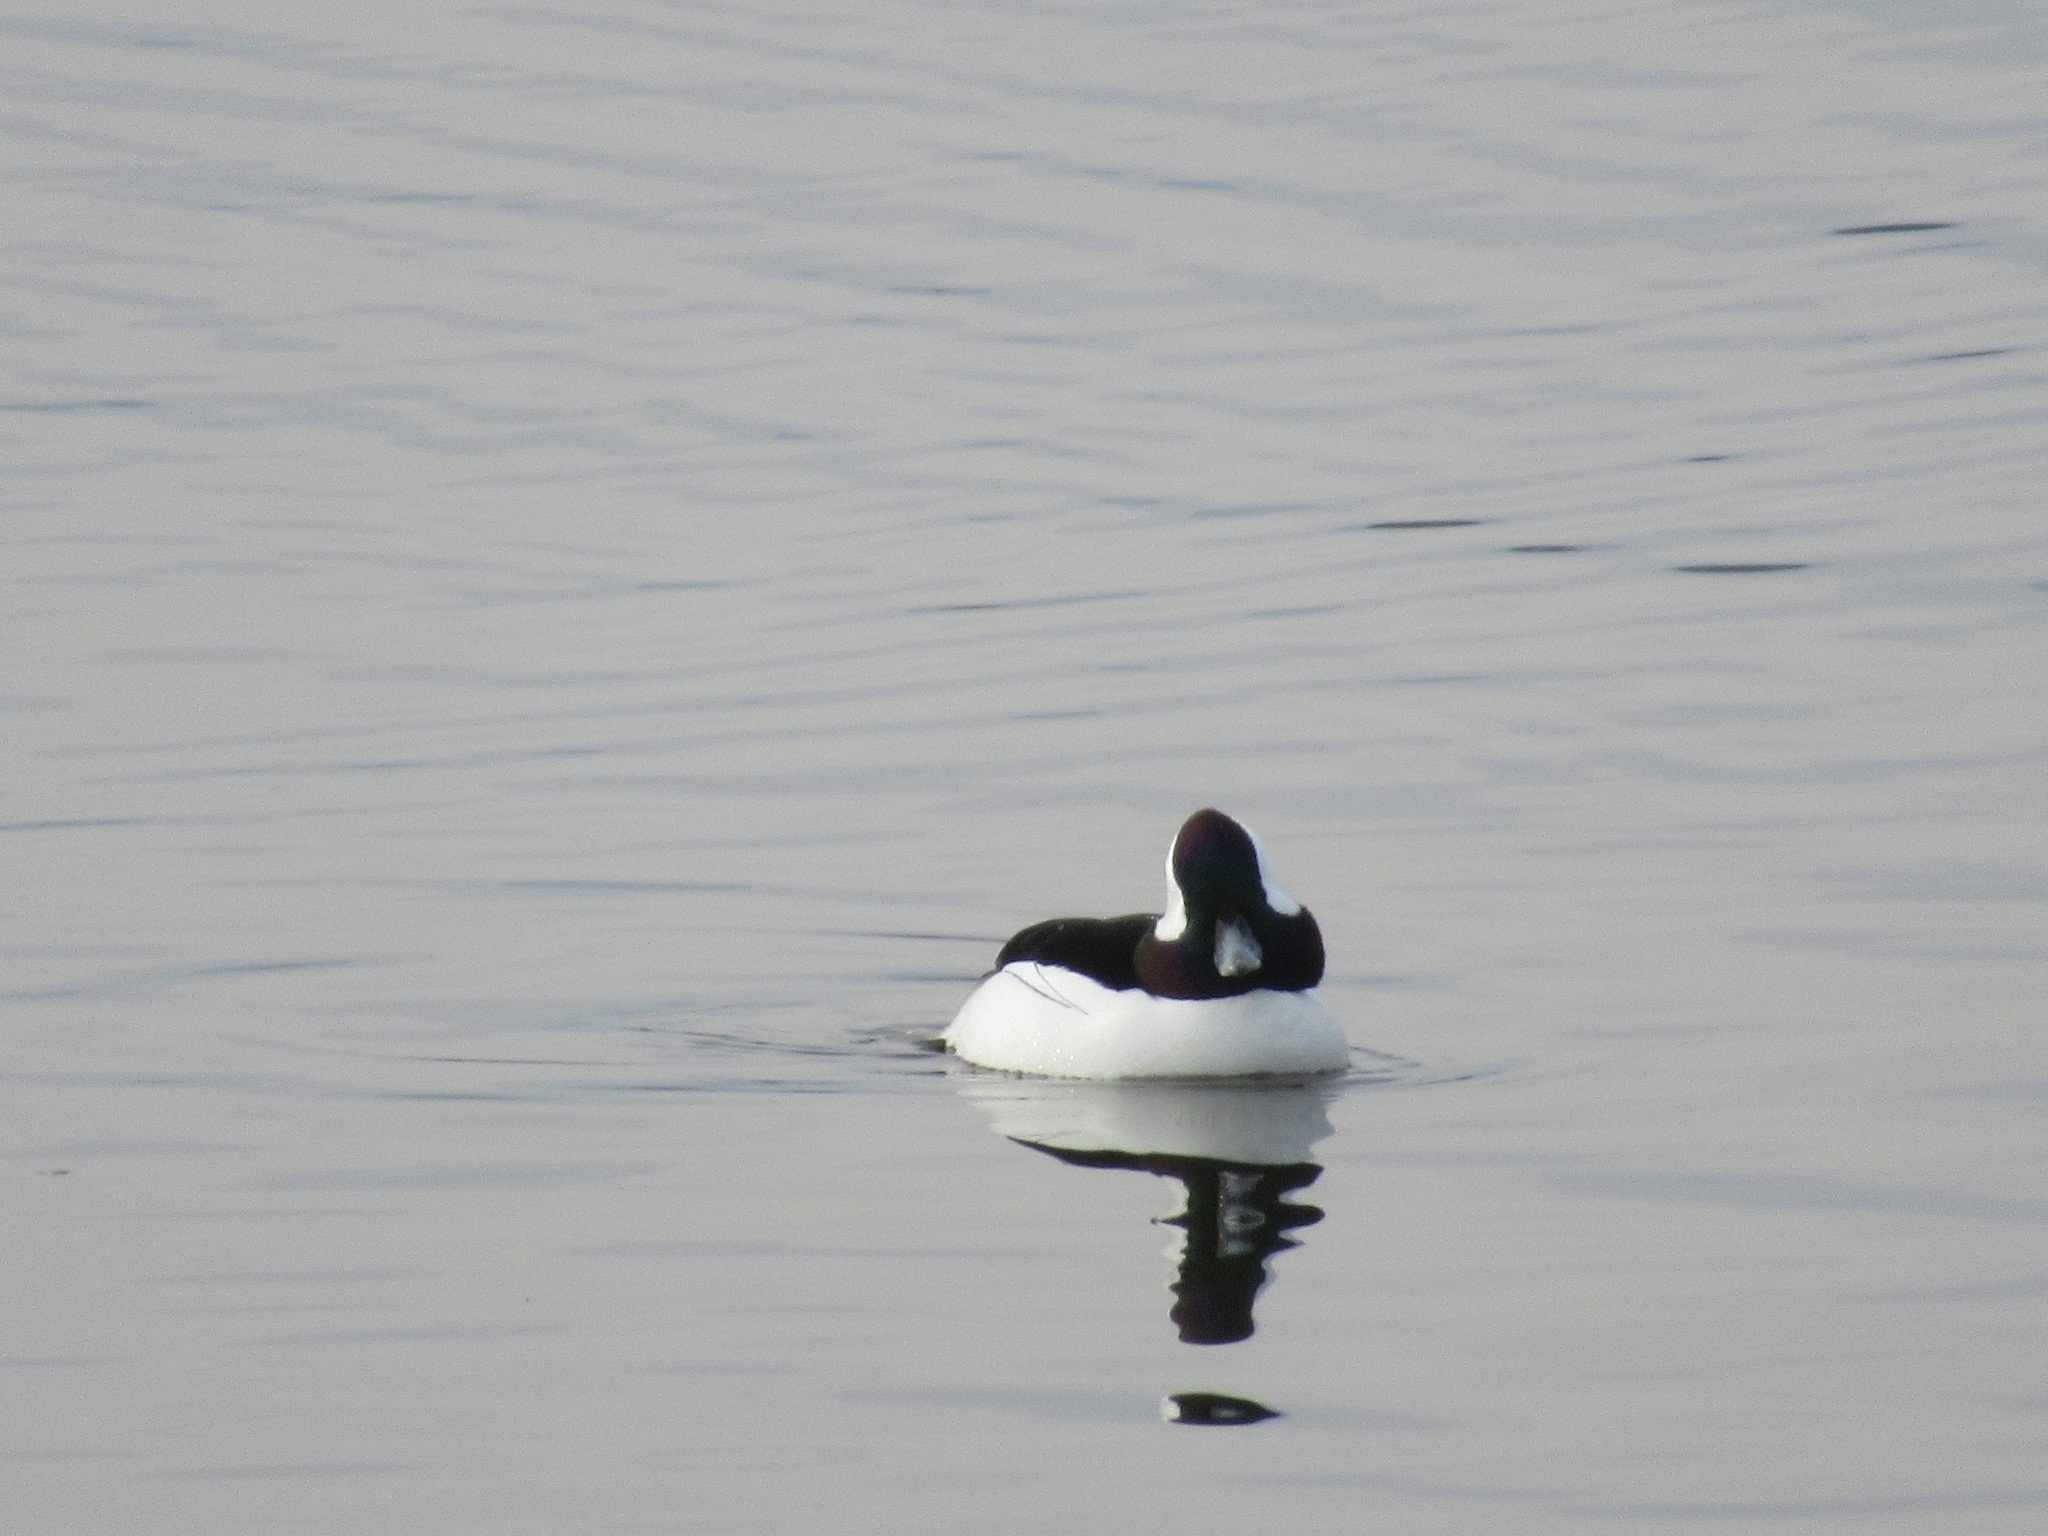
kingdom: Animalia
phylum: Chordata
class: Aves
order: Anseriformes
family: Anatidae
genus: Bucephala
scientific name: Bucephala albeola
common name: Bufflehead
